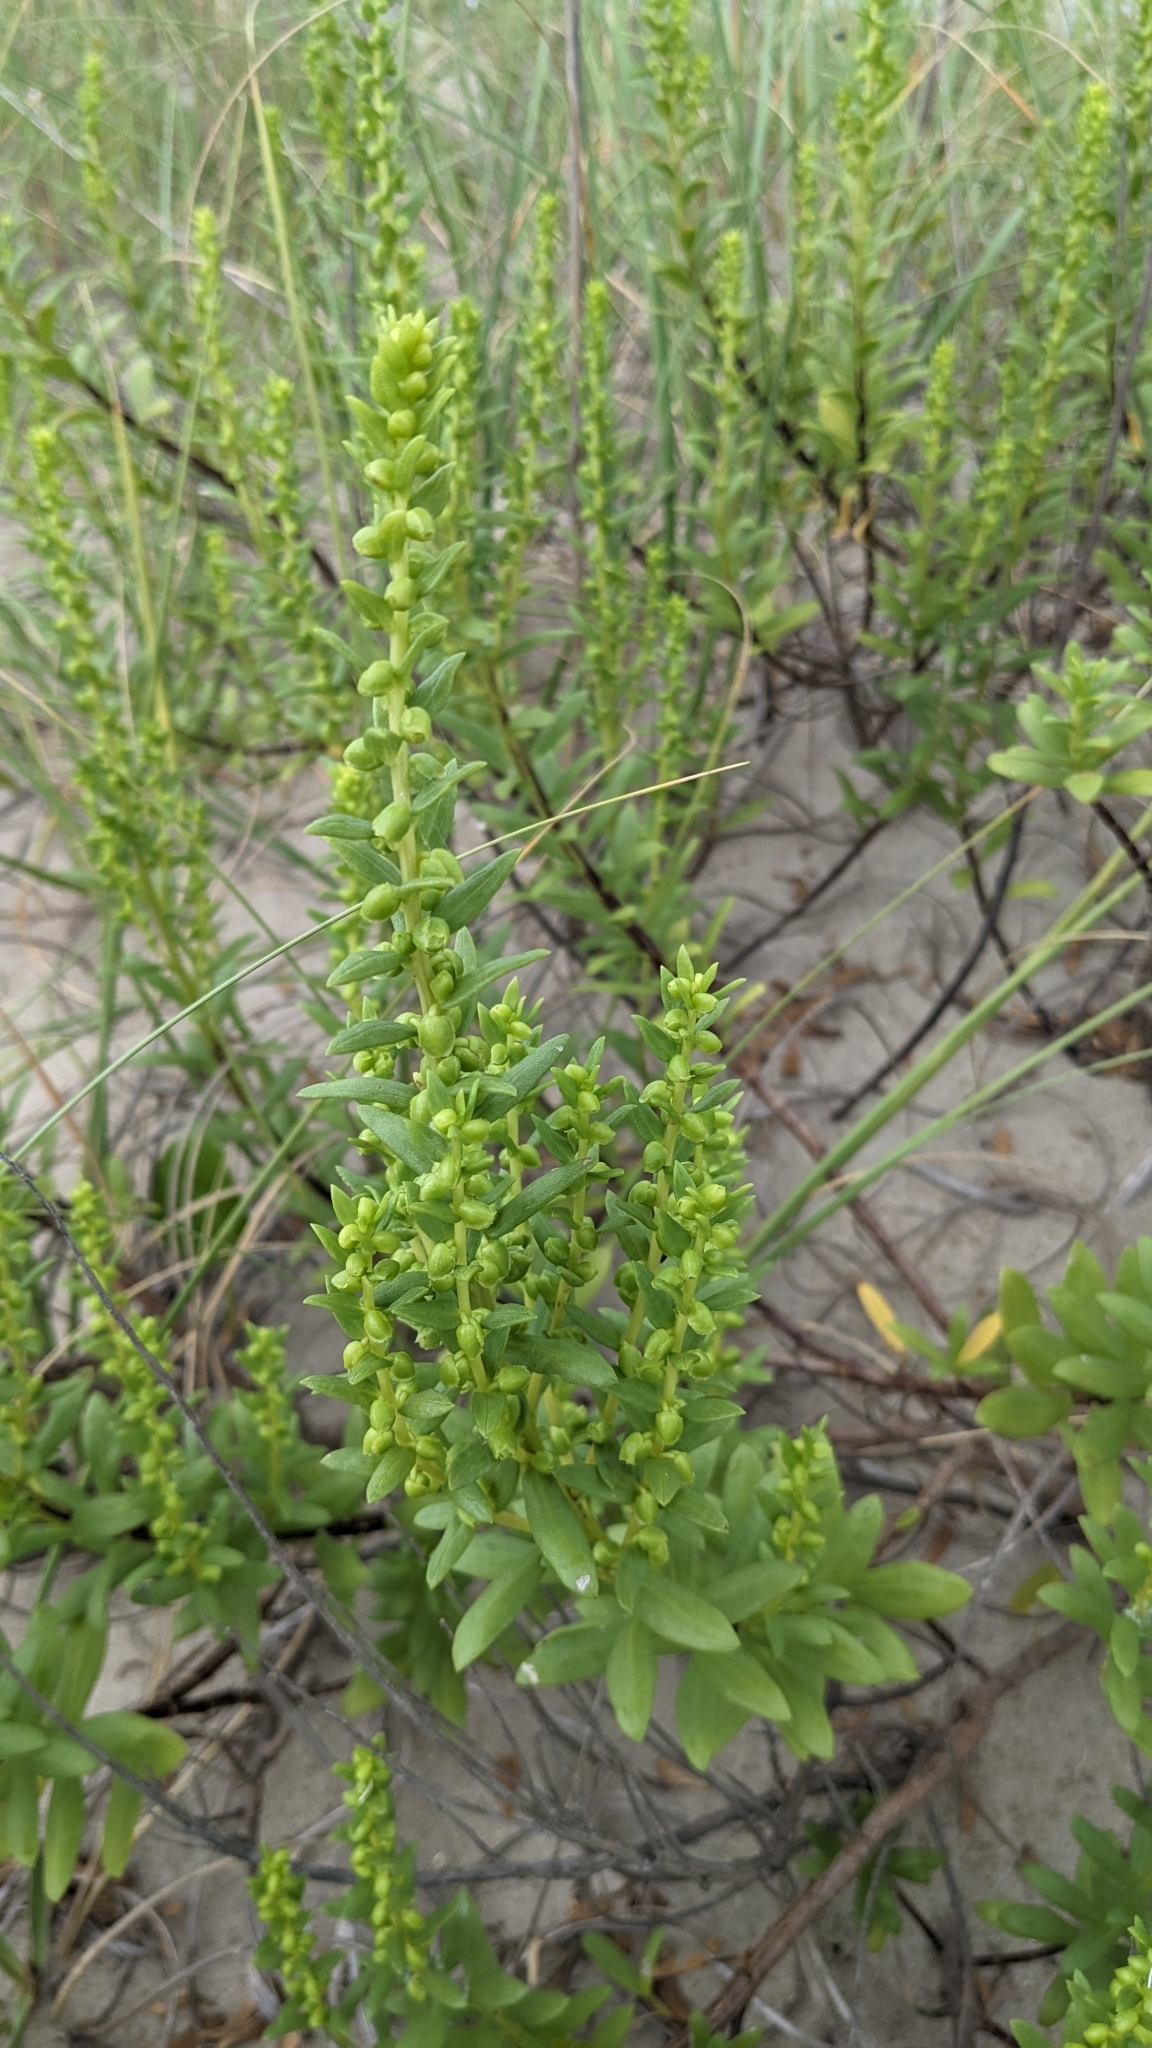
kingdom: Plantae
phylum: Tracheophyta
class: Magnoliopsida
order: Asterales
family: Asteraceae
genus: Iva
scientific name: Iva imbricata
